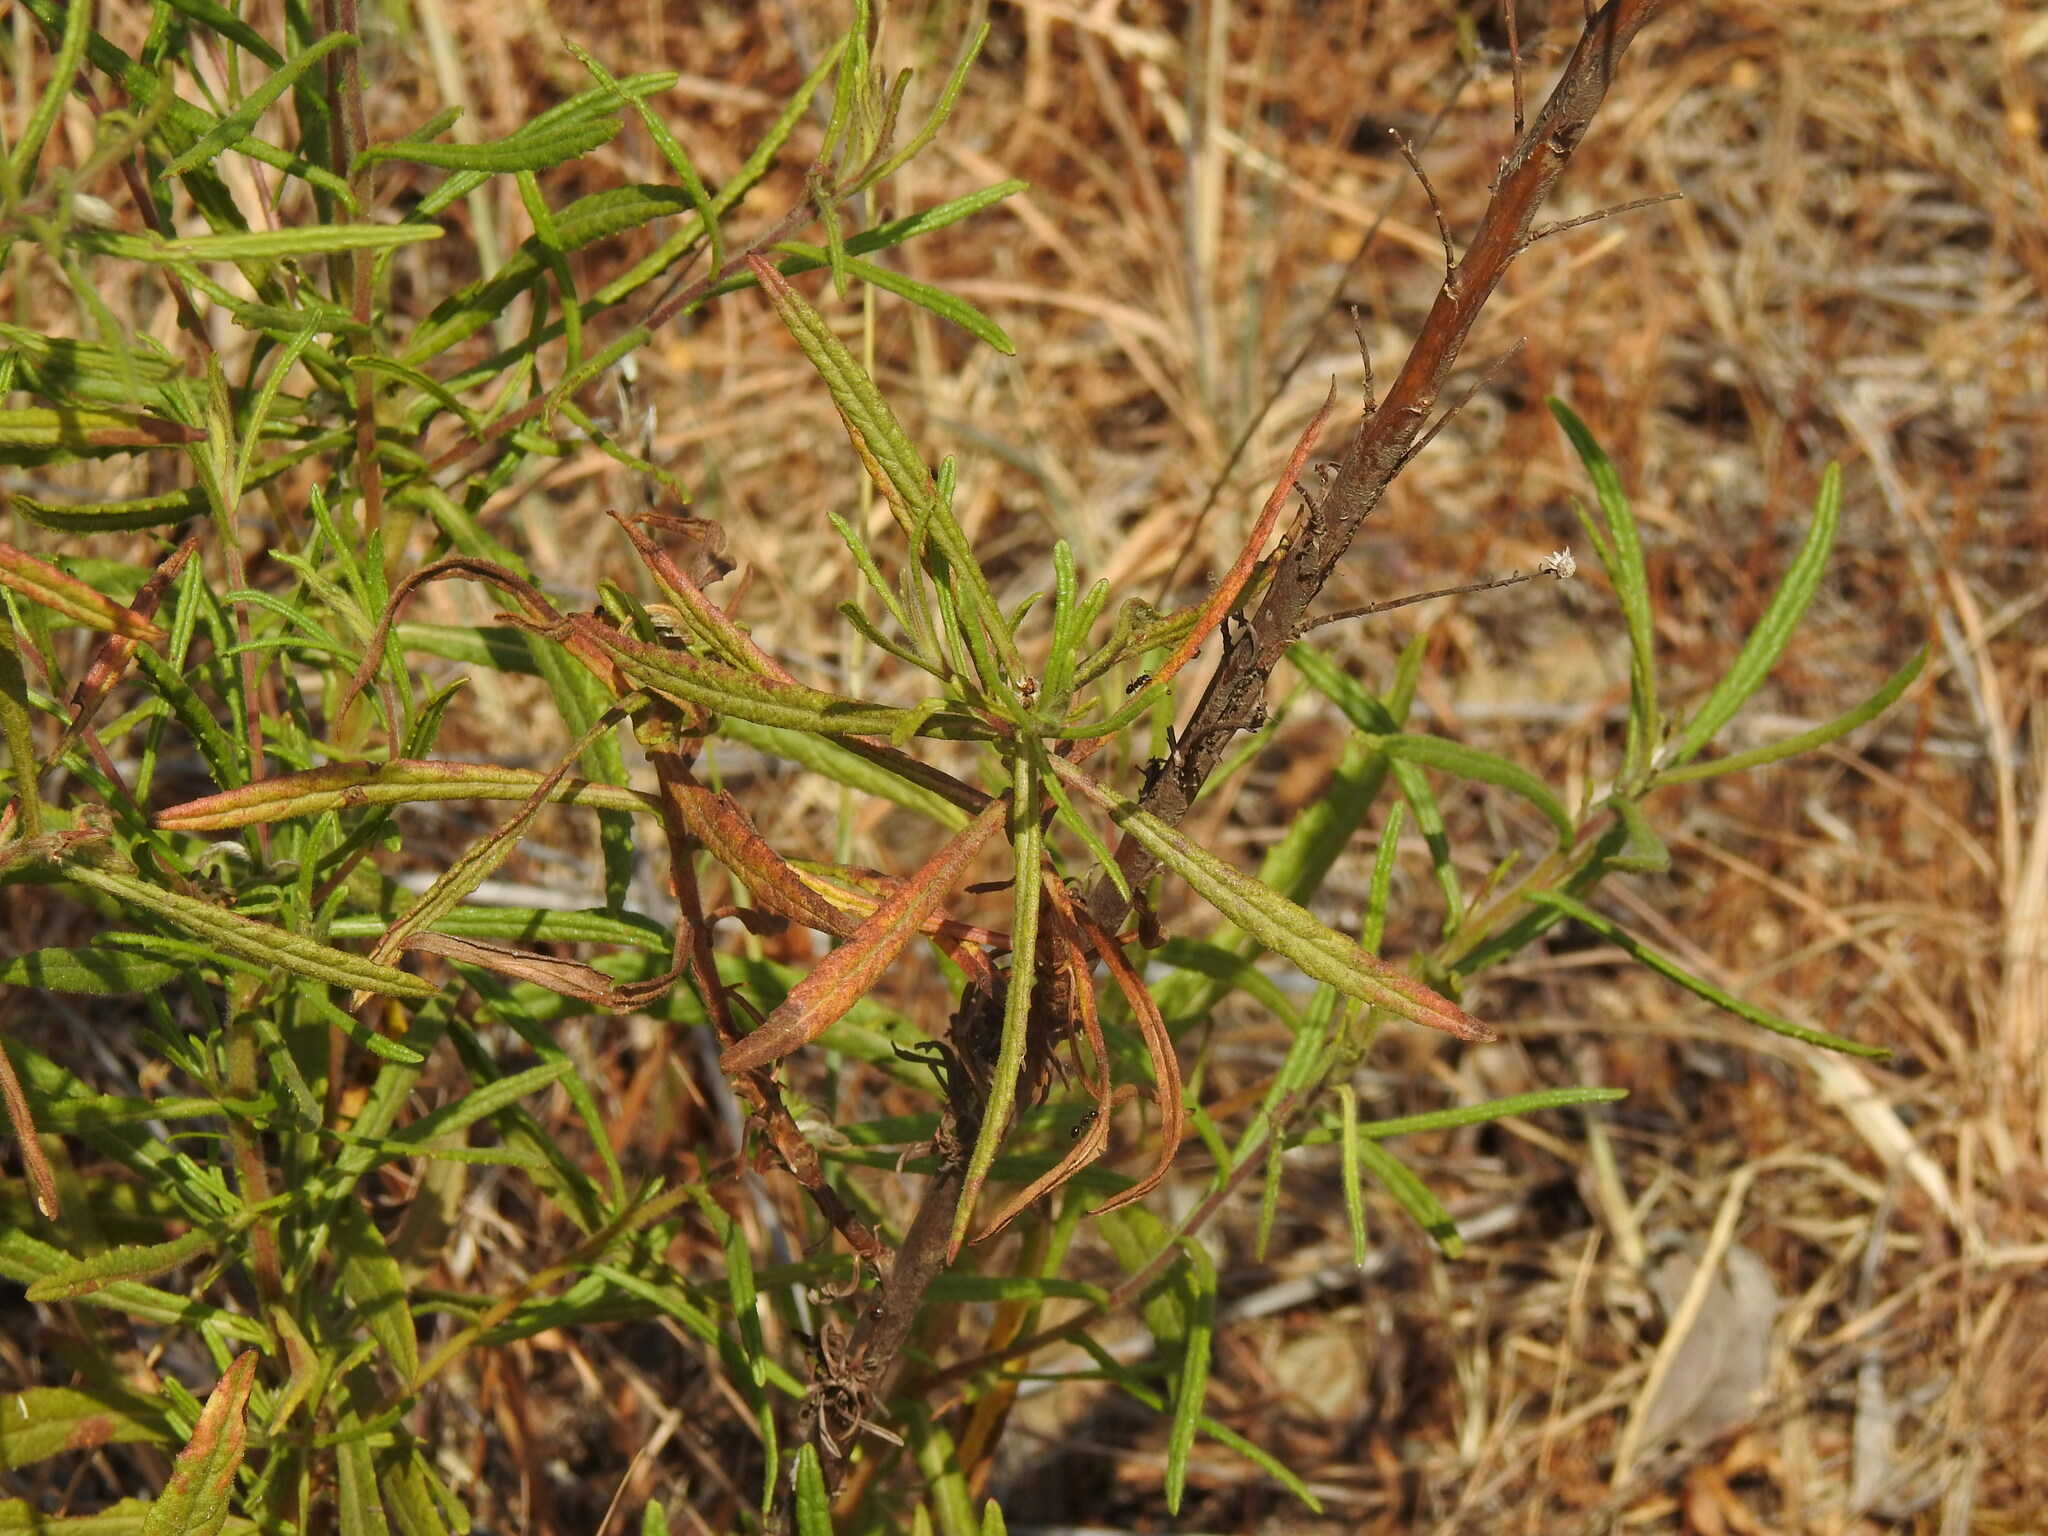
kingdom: Plantae
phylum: Tracheophyta
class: Magnoliopsida
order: Asterales
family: Asteraceae
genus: Dittrichia
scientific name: Dittrichia viscosa
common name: Woody fleabane
